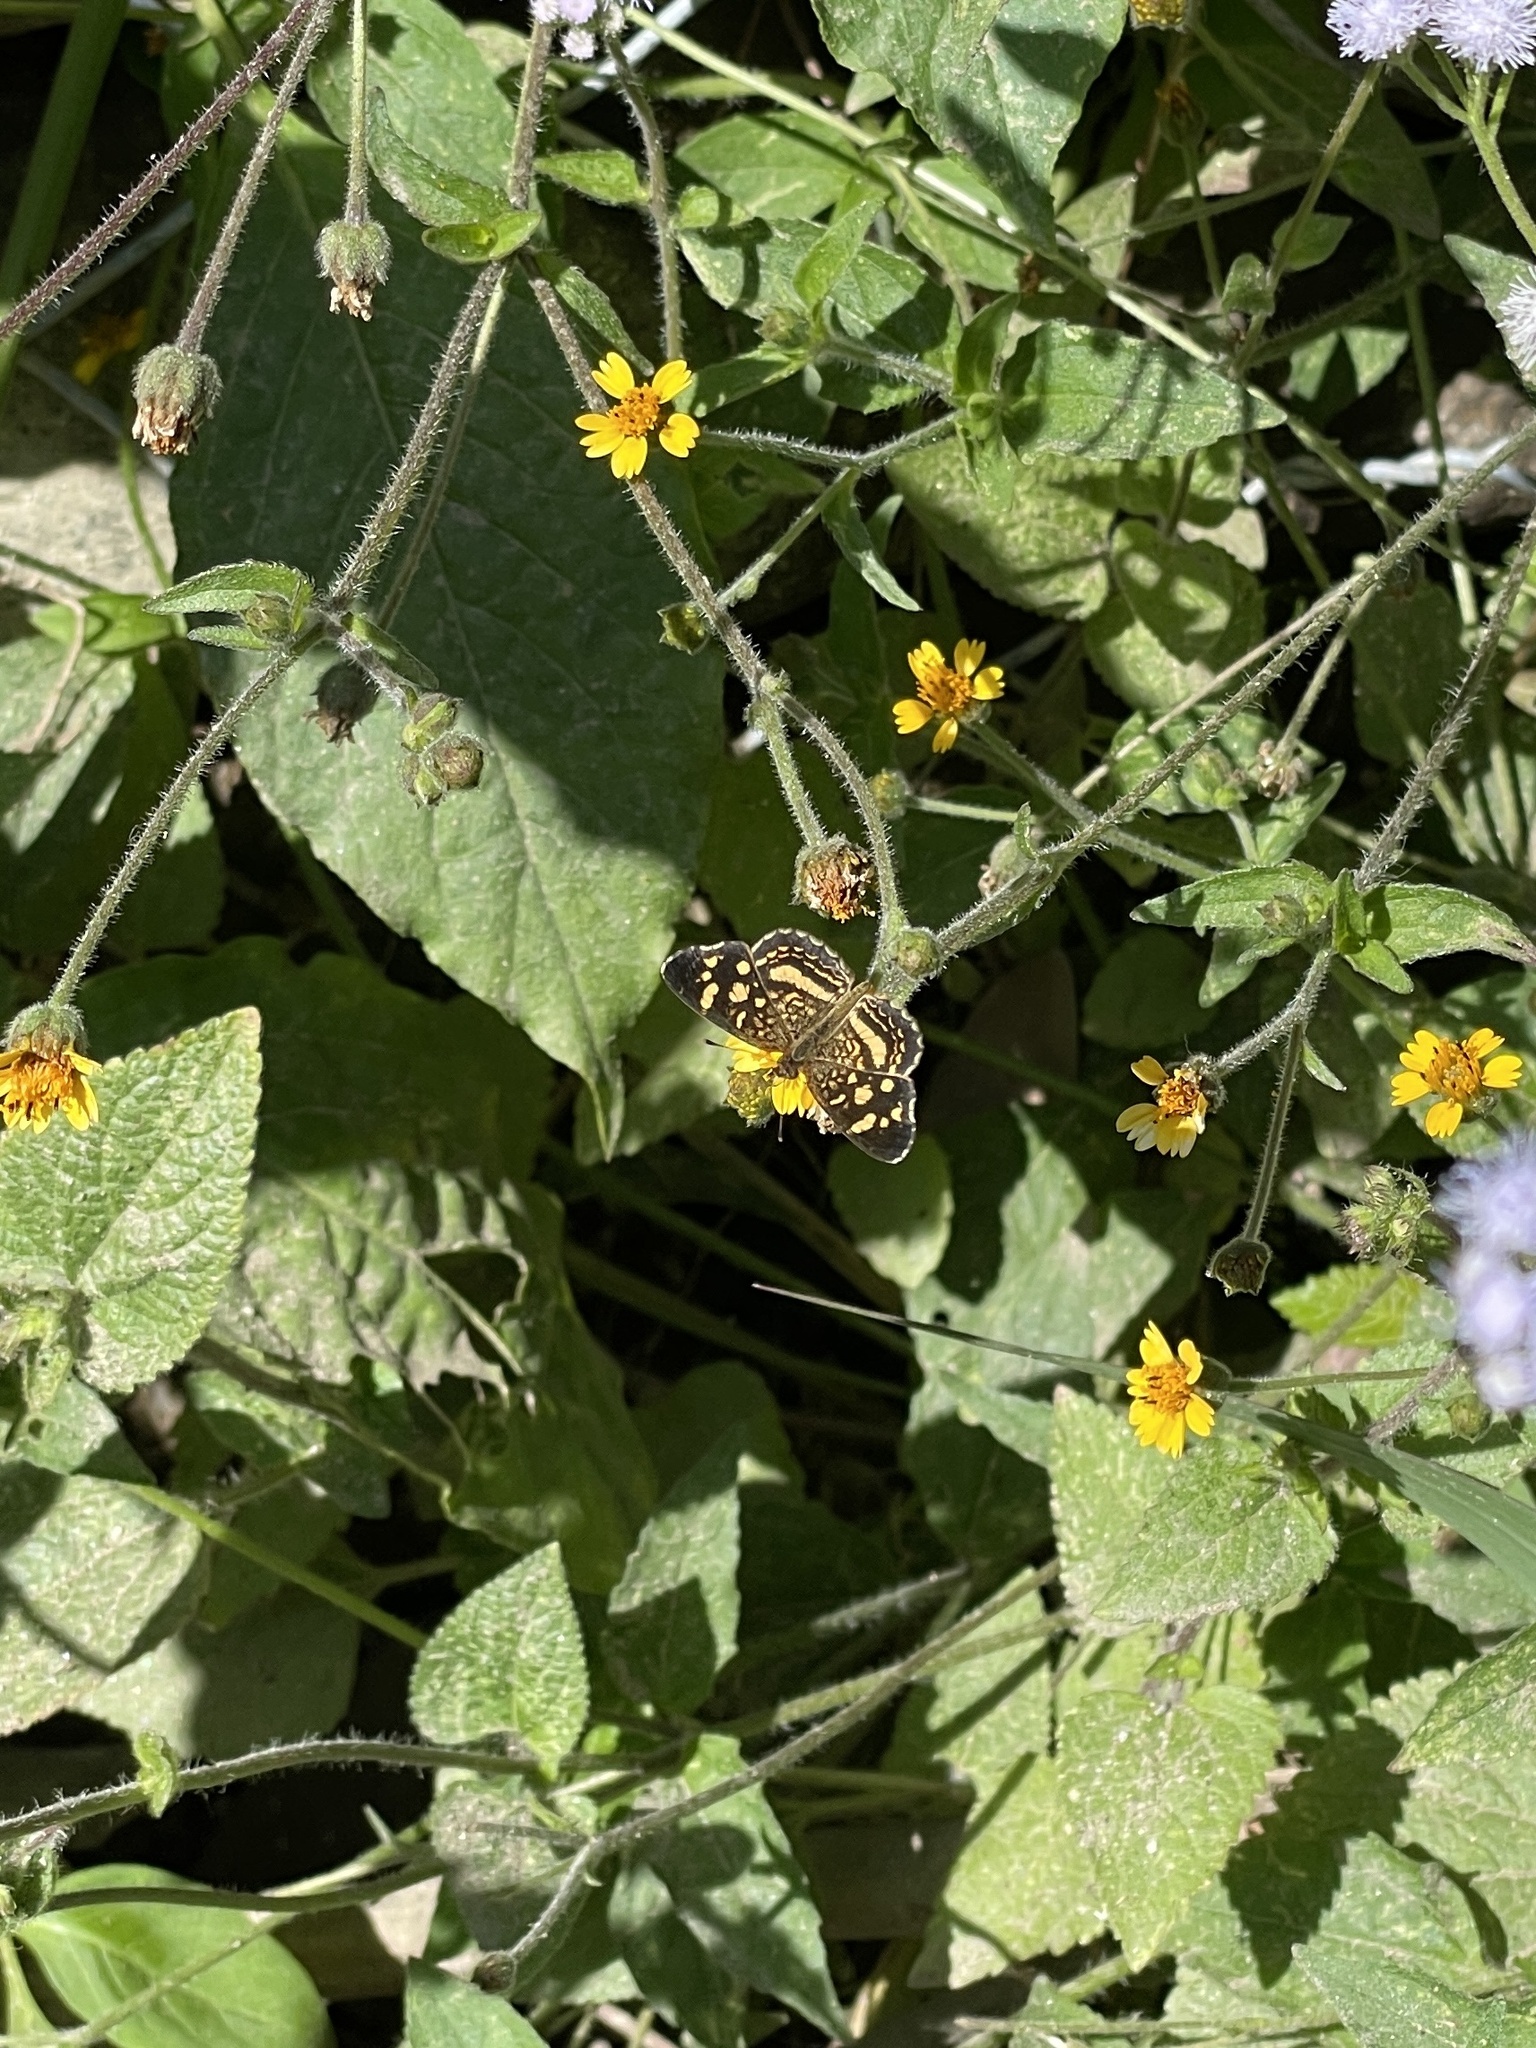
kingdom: Animalia
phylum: Arthropoda
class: Insecta
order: Lepidoptera
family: Nymphalidae
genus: Anthanassa
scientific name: Anthanassa tulcis
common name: Pale-banded crescent
